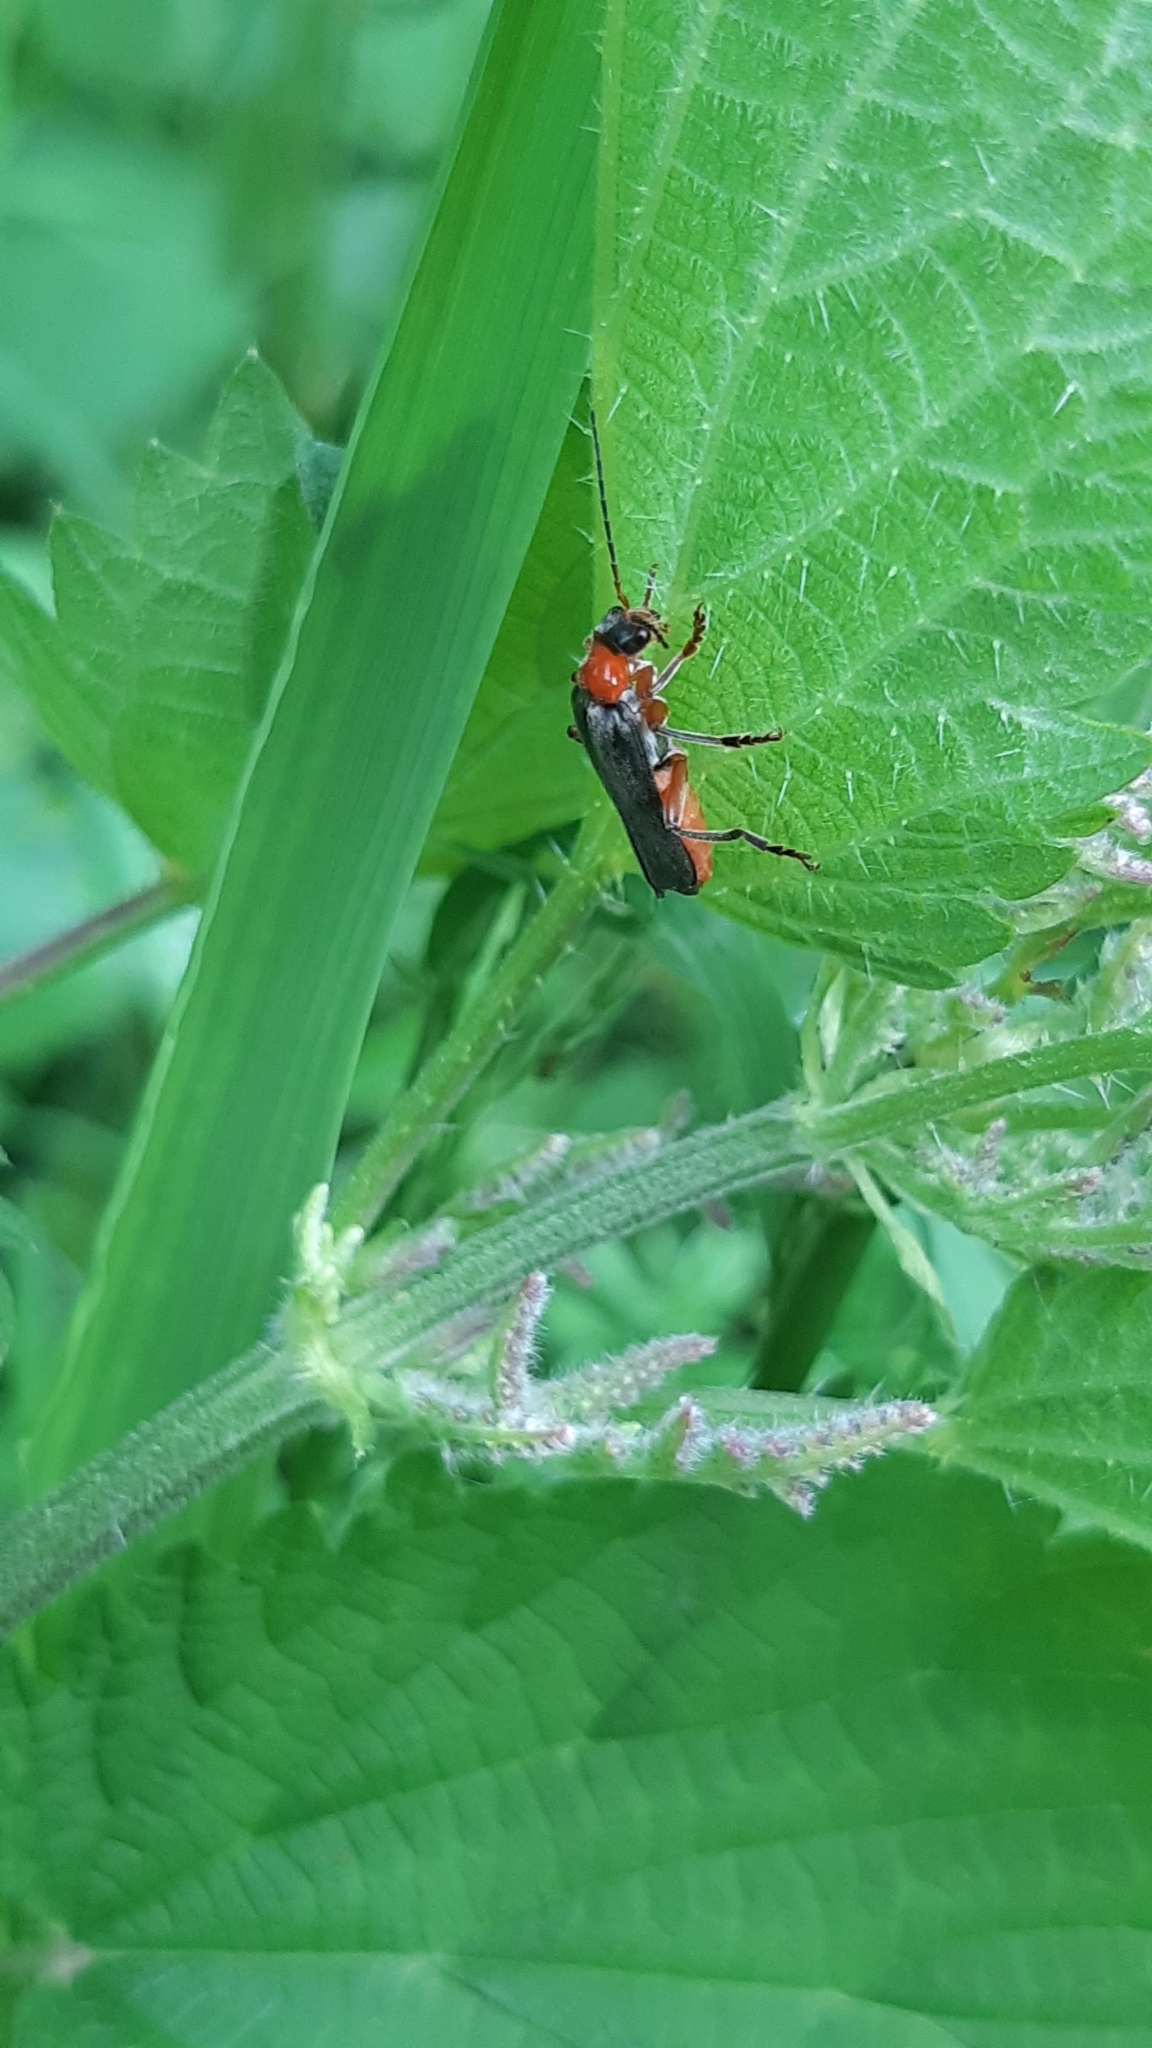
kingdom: Animalia
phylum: Arthropoda
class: Insecta
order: Coleoptera
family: Cantharidae
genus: Cantharis
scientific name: Cantharis pellucida
